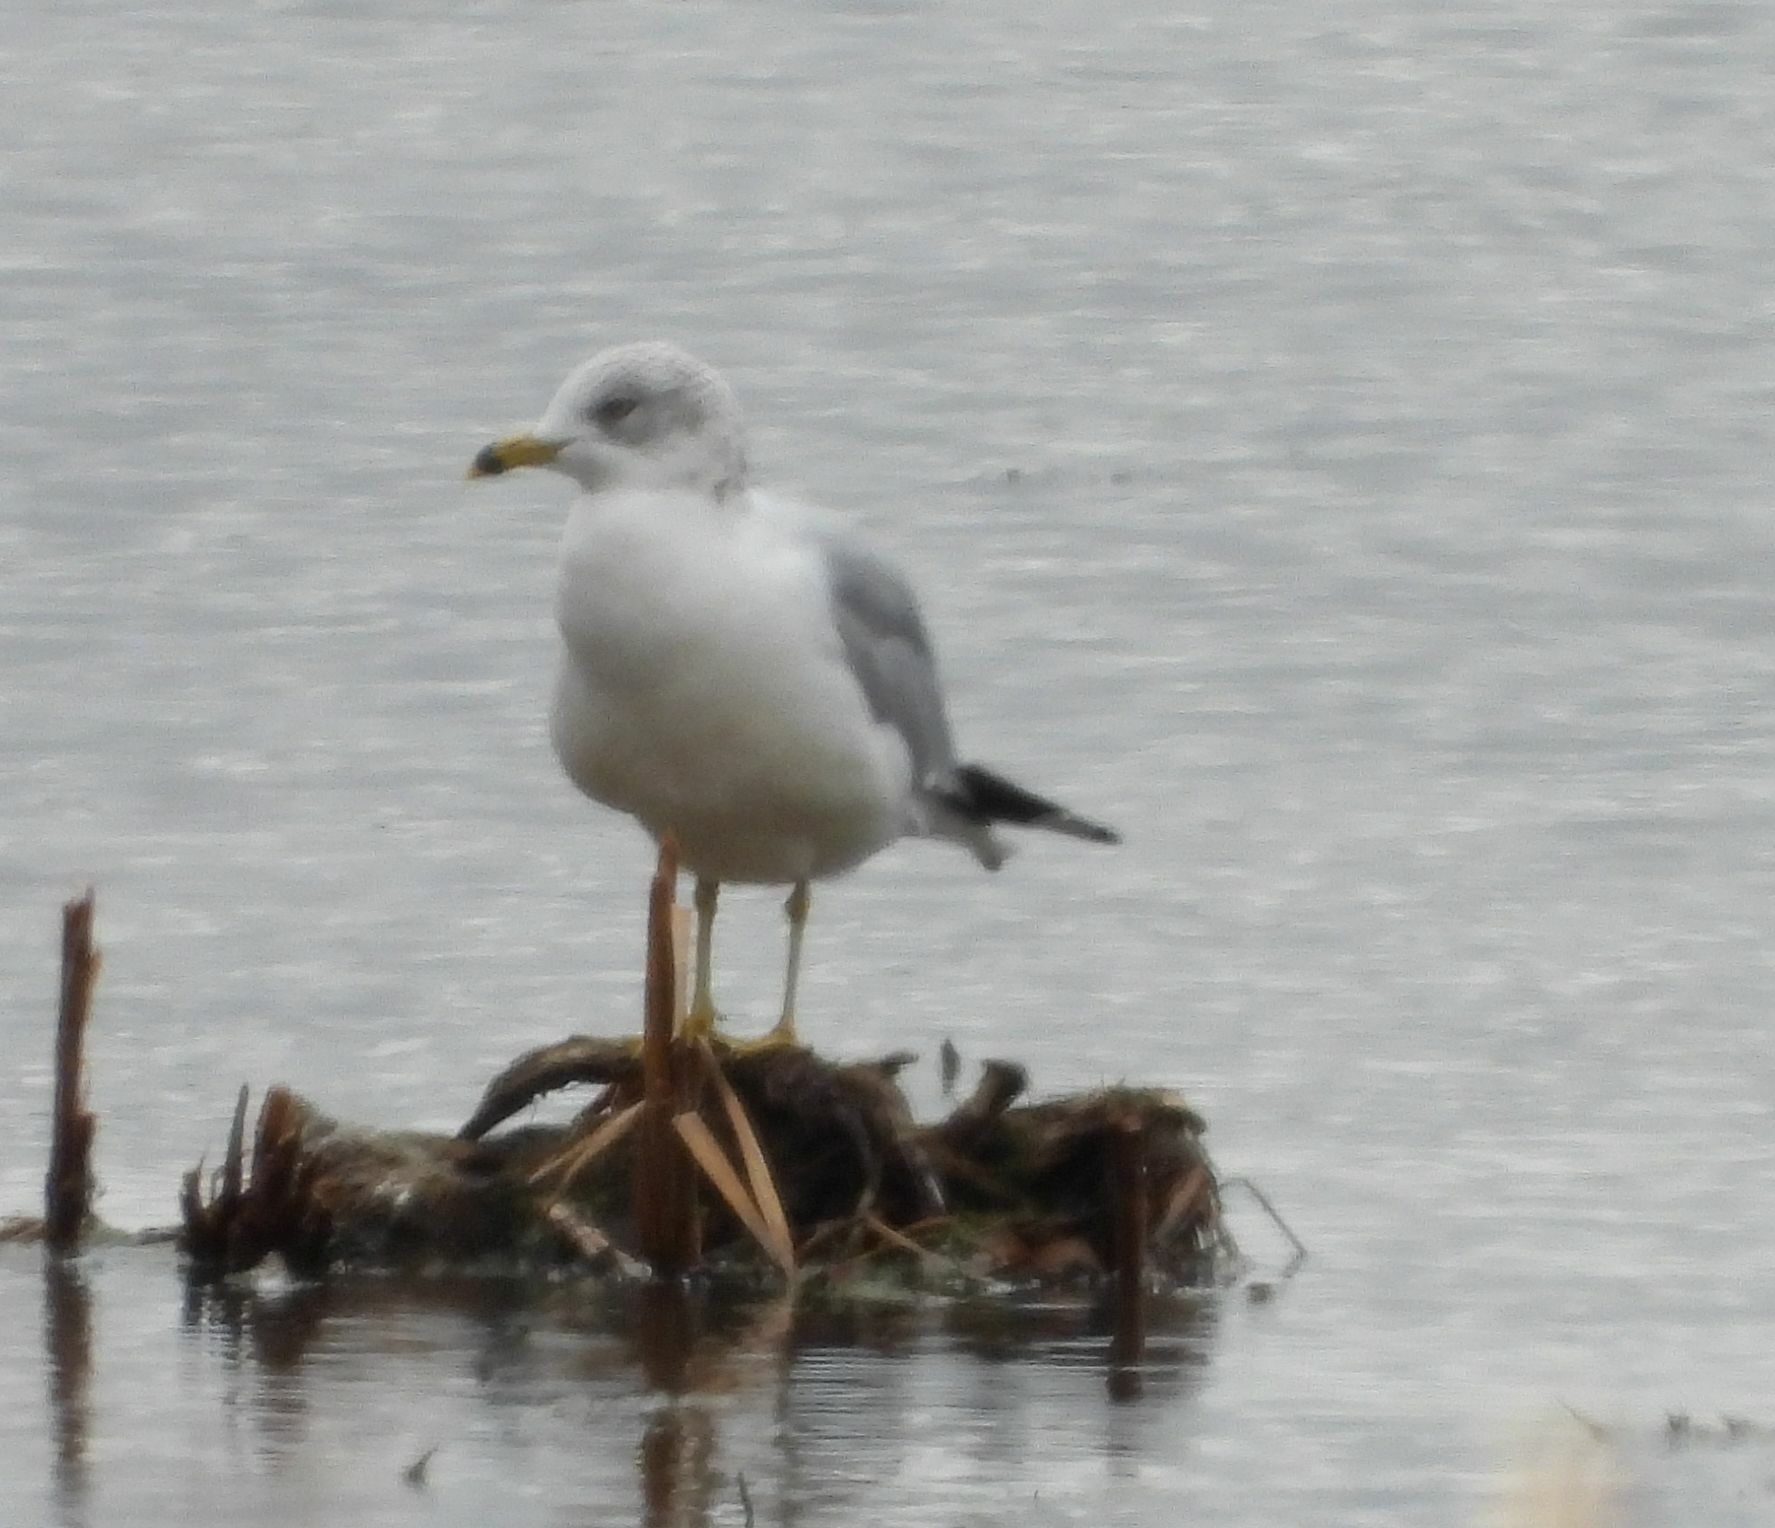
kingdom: Animalia
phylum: Chordata
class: Aves
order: Charadriiformes
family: Laridae
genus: Larus
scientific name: Larus delawarensis
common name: Ring-billed gull
